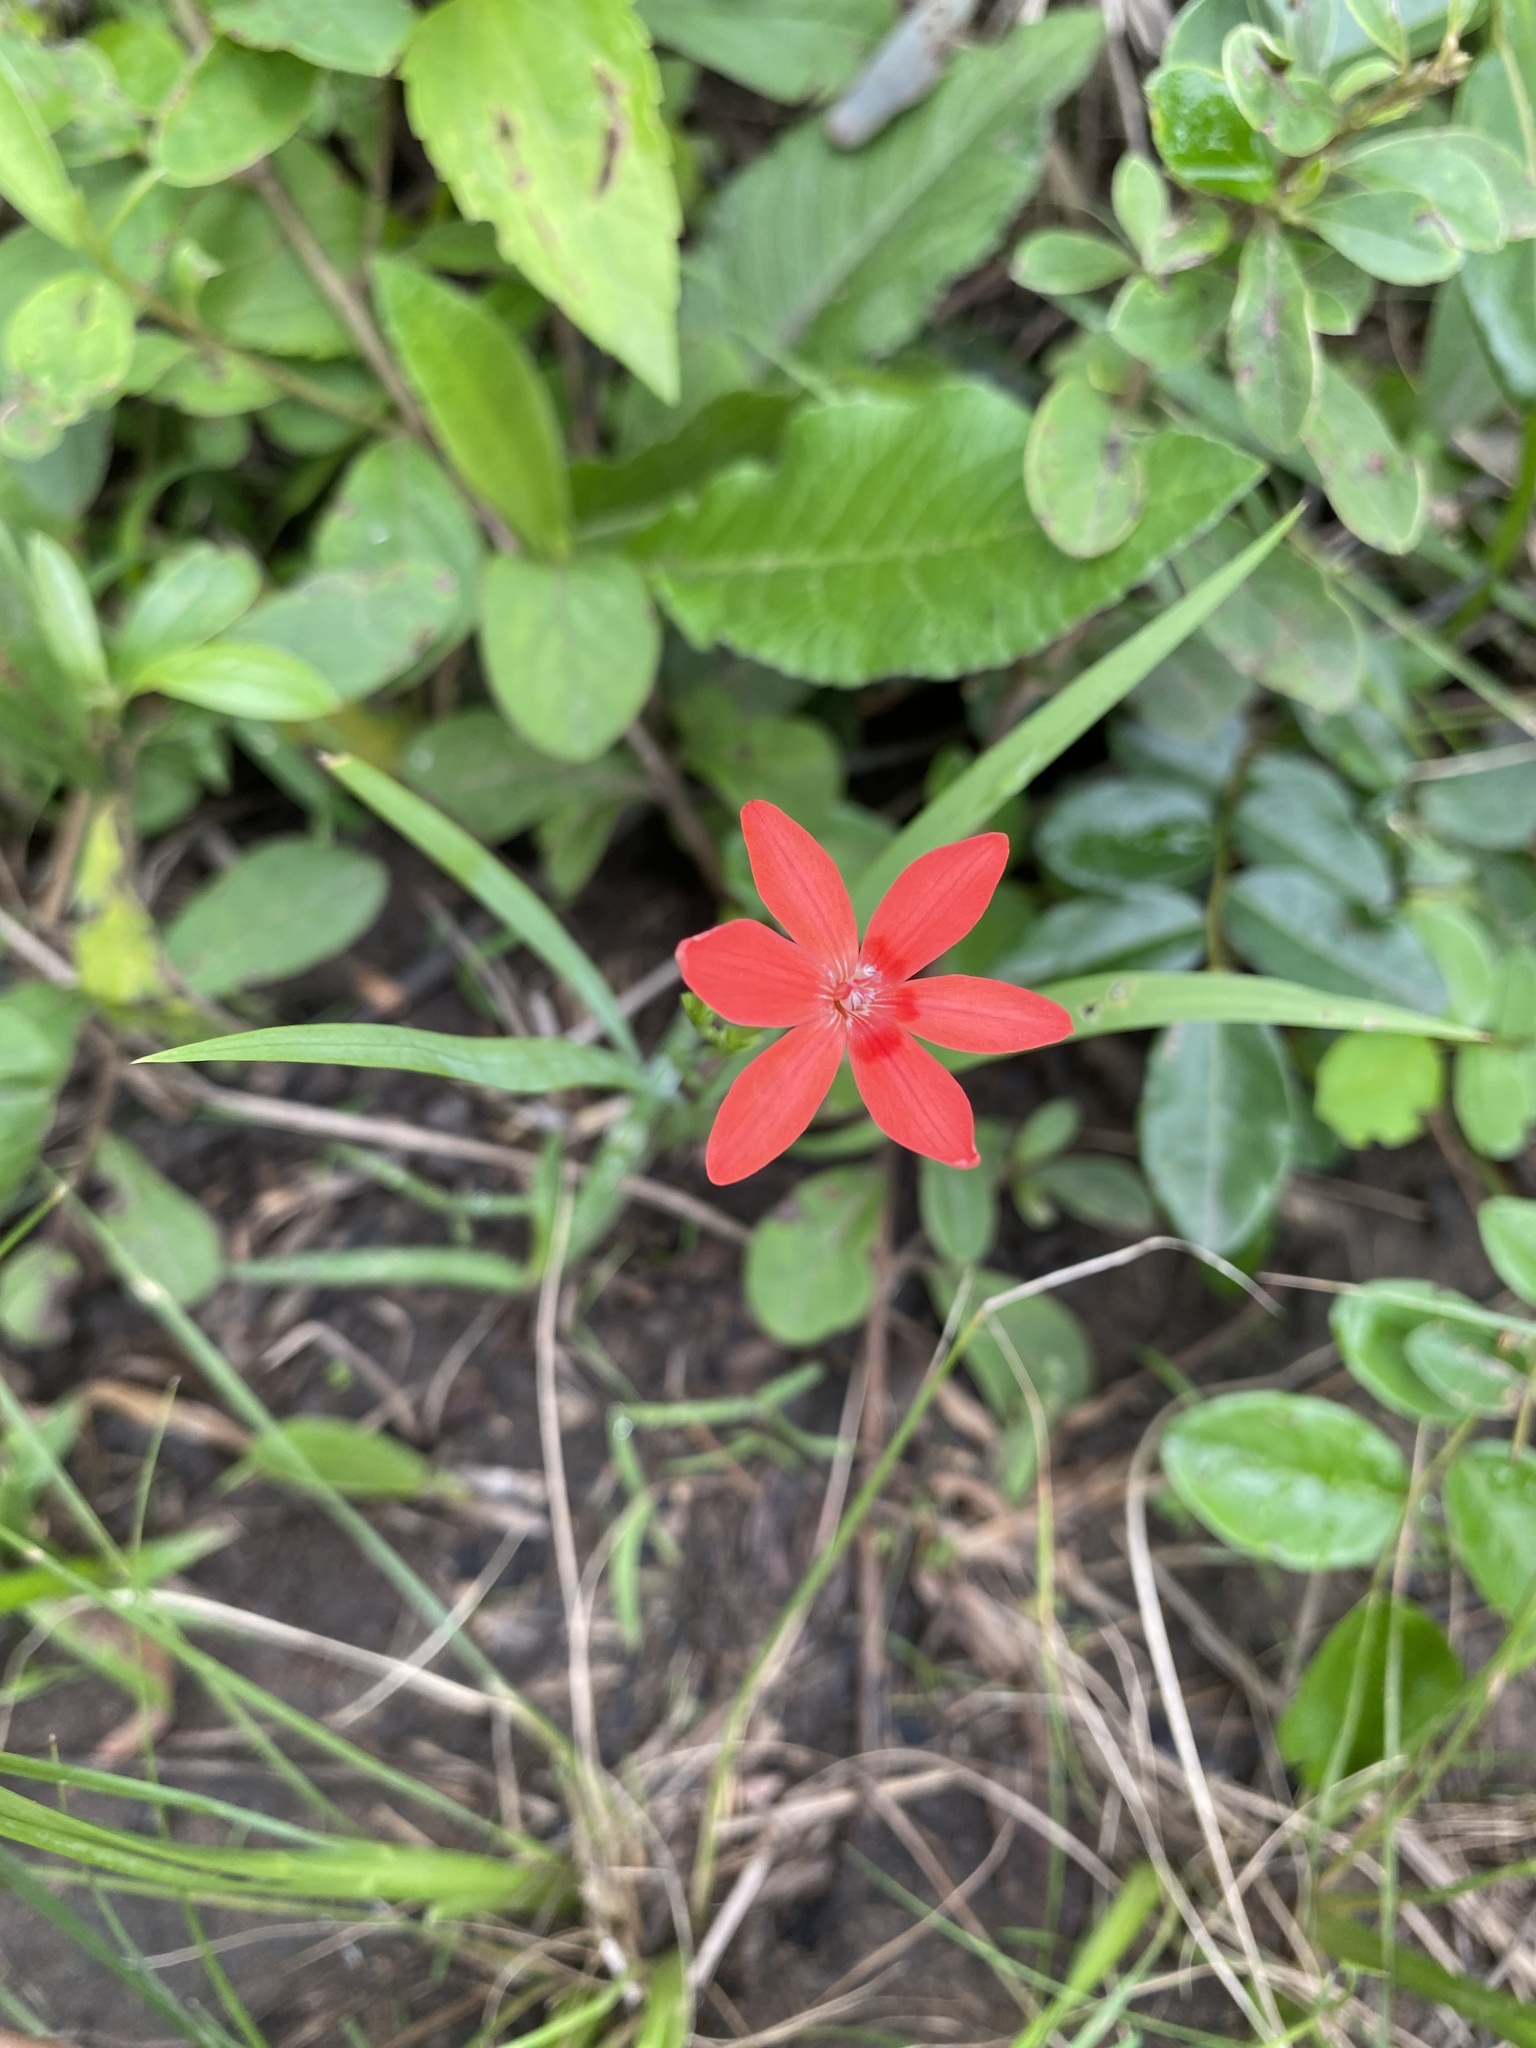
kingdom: Plantae
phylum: Tracheophyta
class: Liliopsida
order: Asparagales
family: Iridaceae
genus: Freesia
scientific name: Freesia laxa
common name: False freesia
